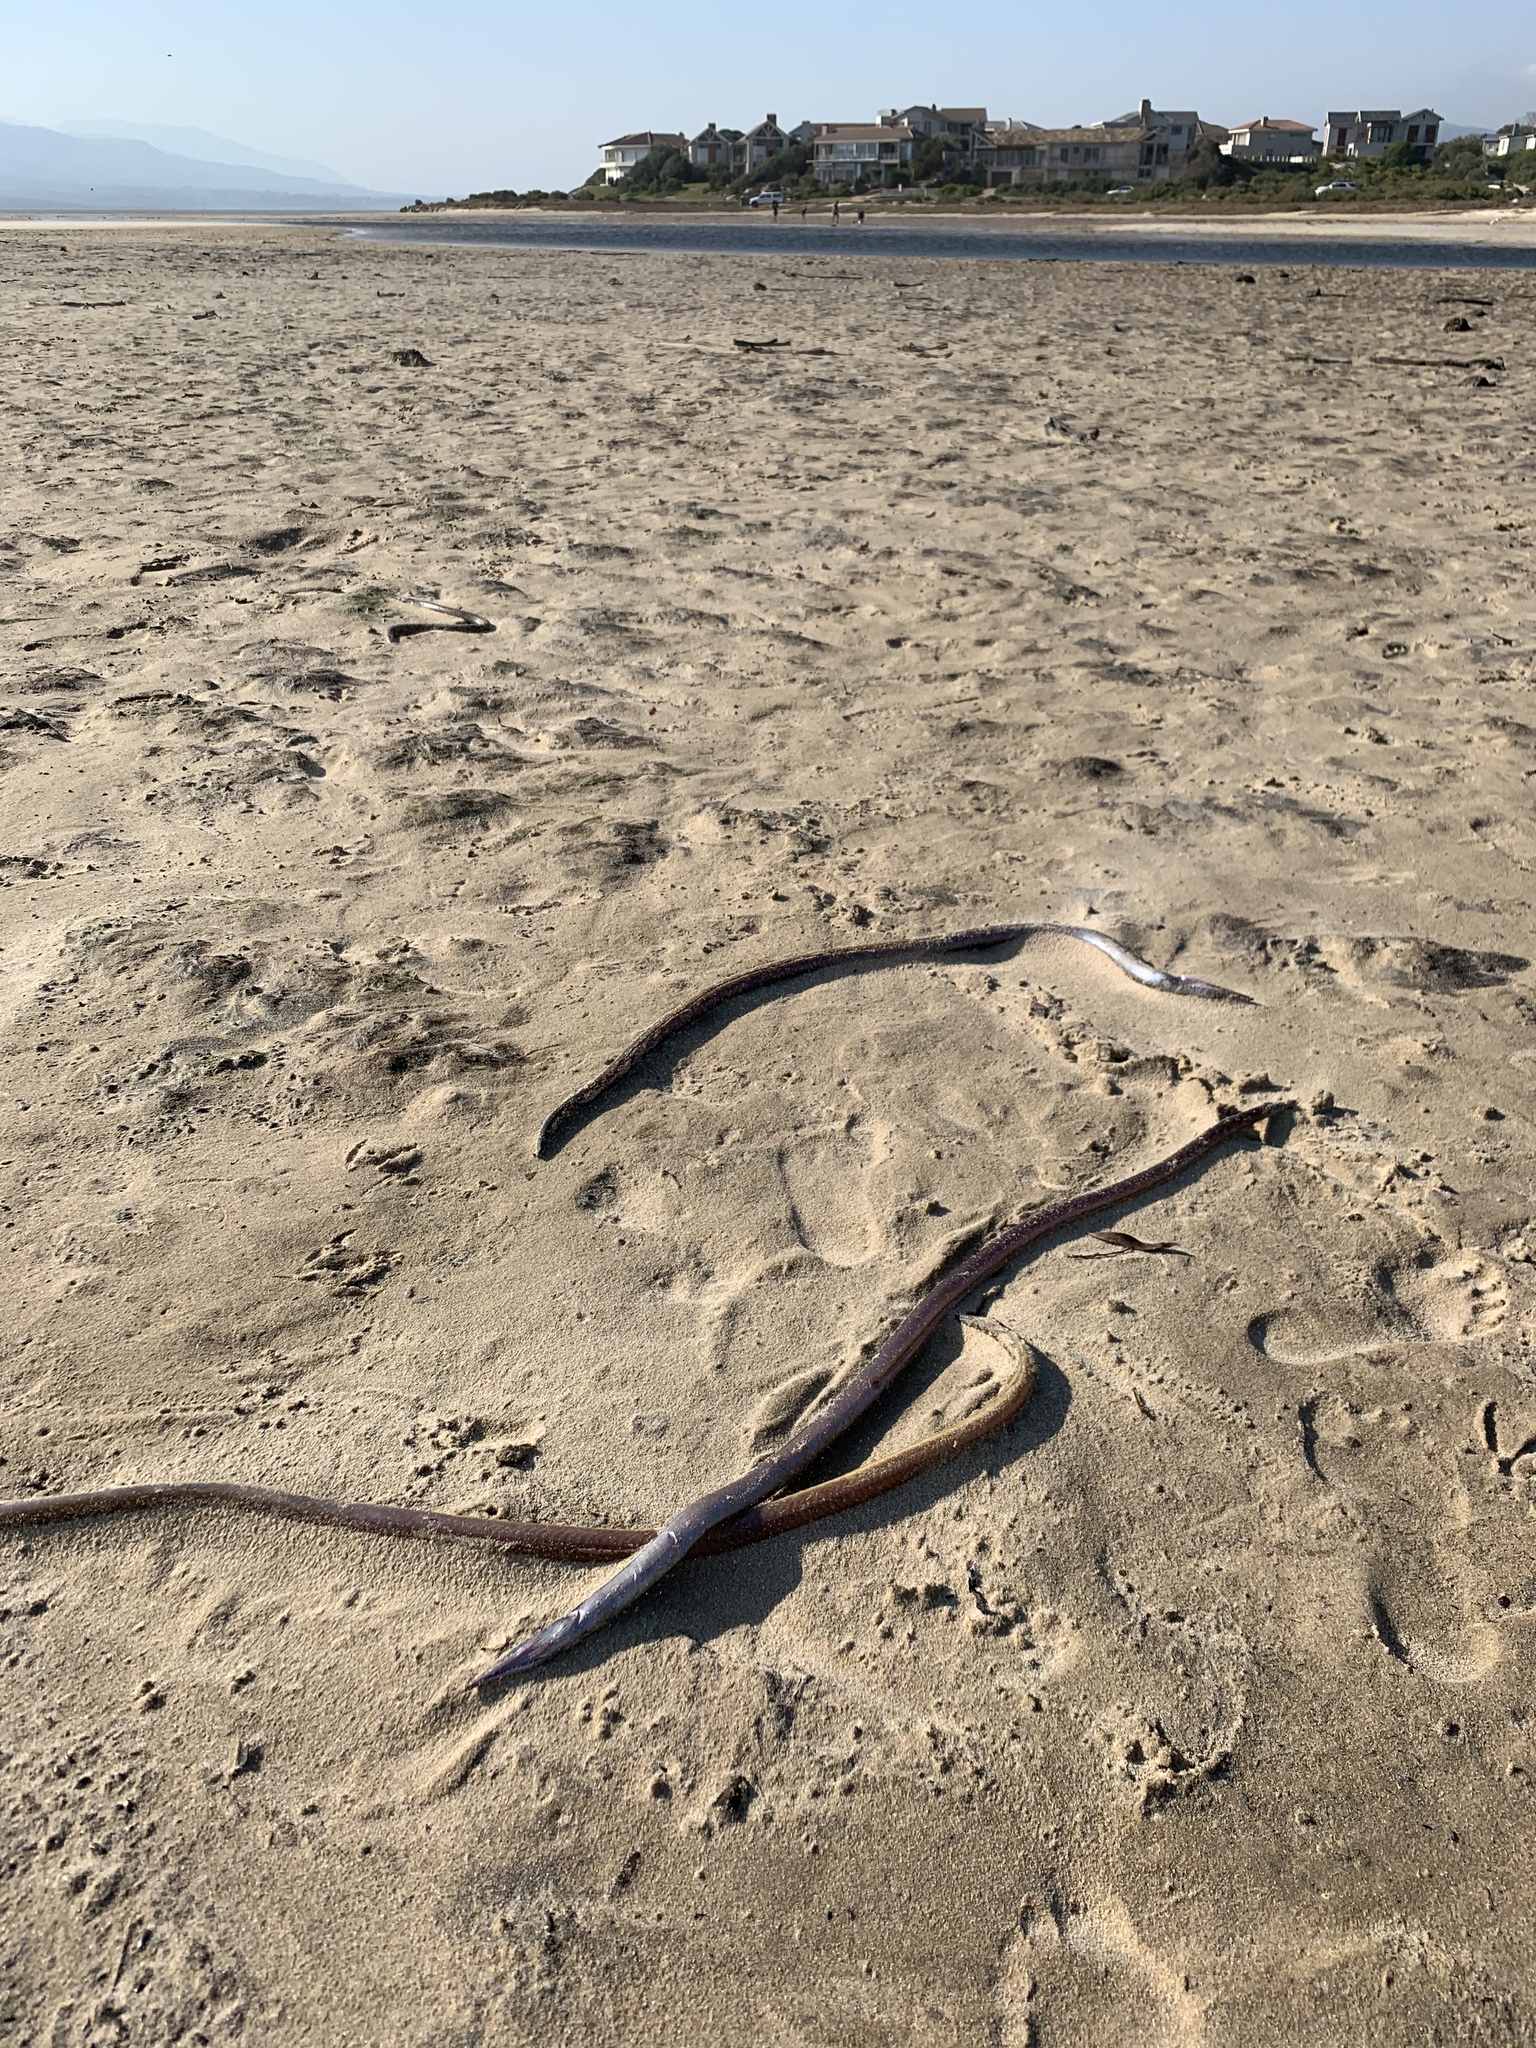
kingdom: Animalia
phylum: Chordata
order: Anguilliformes
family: Ophichthidae
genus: Ophisurus
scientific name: Ophisurus serpens
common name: Serpent eel
